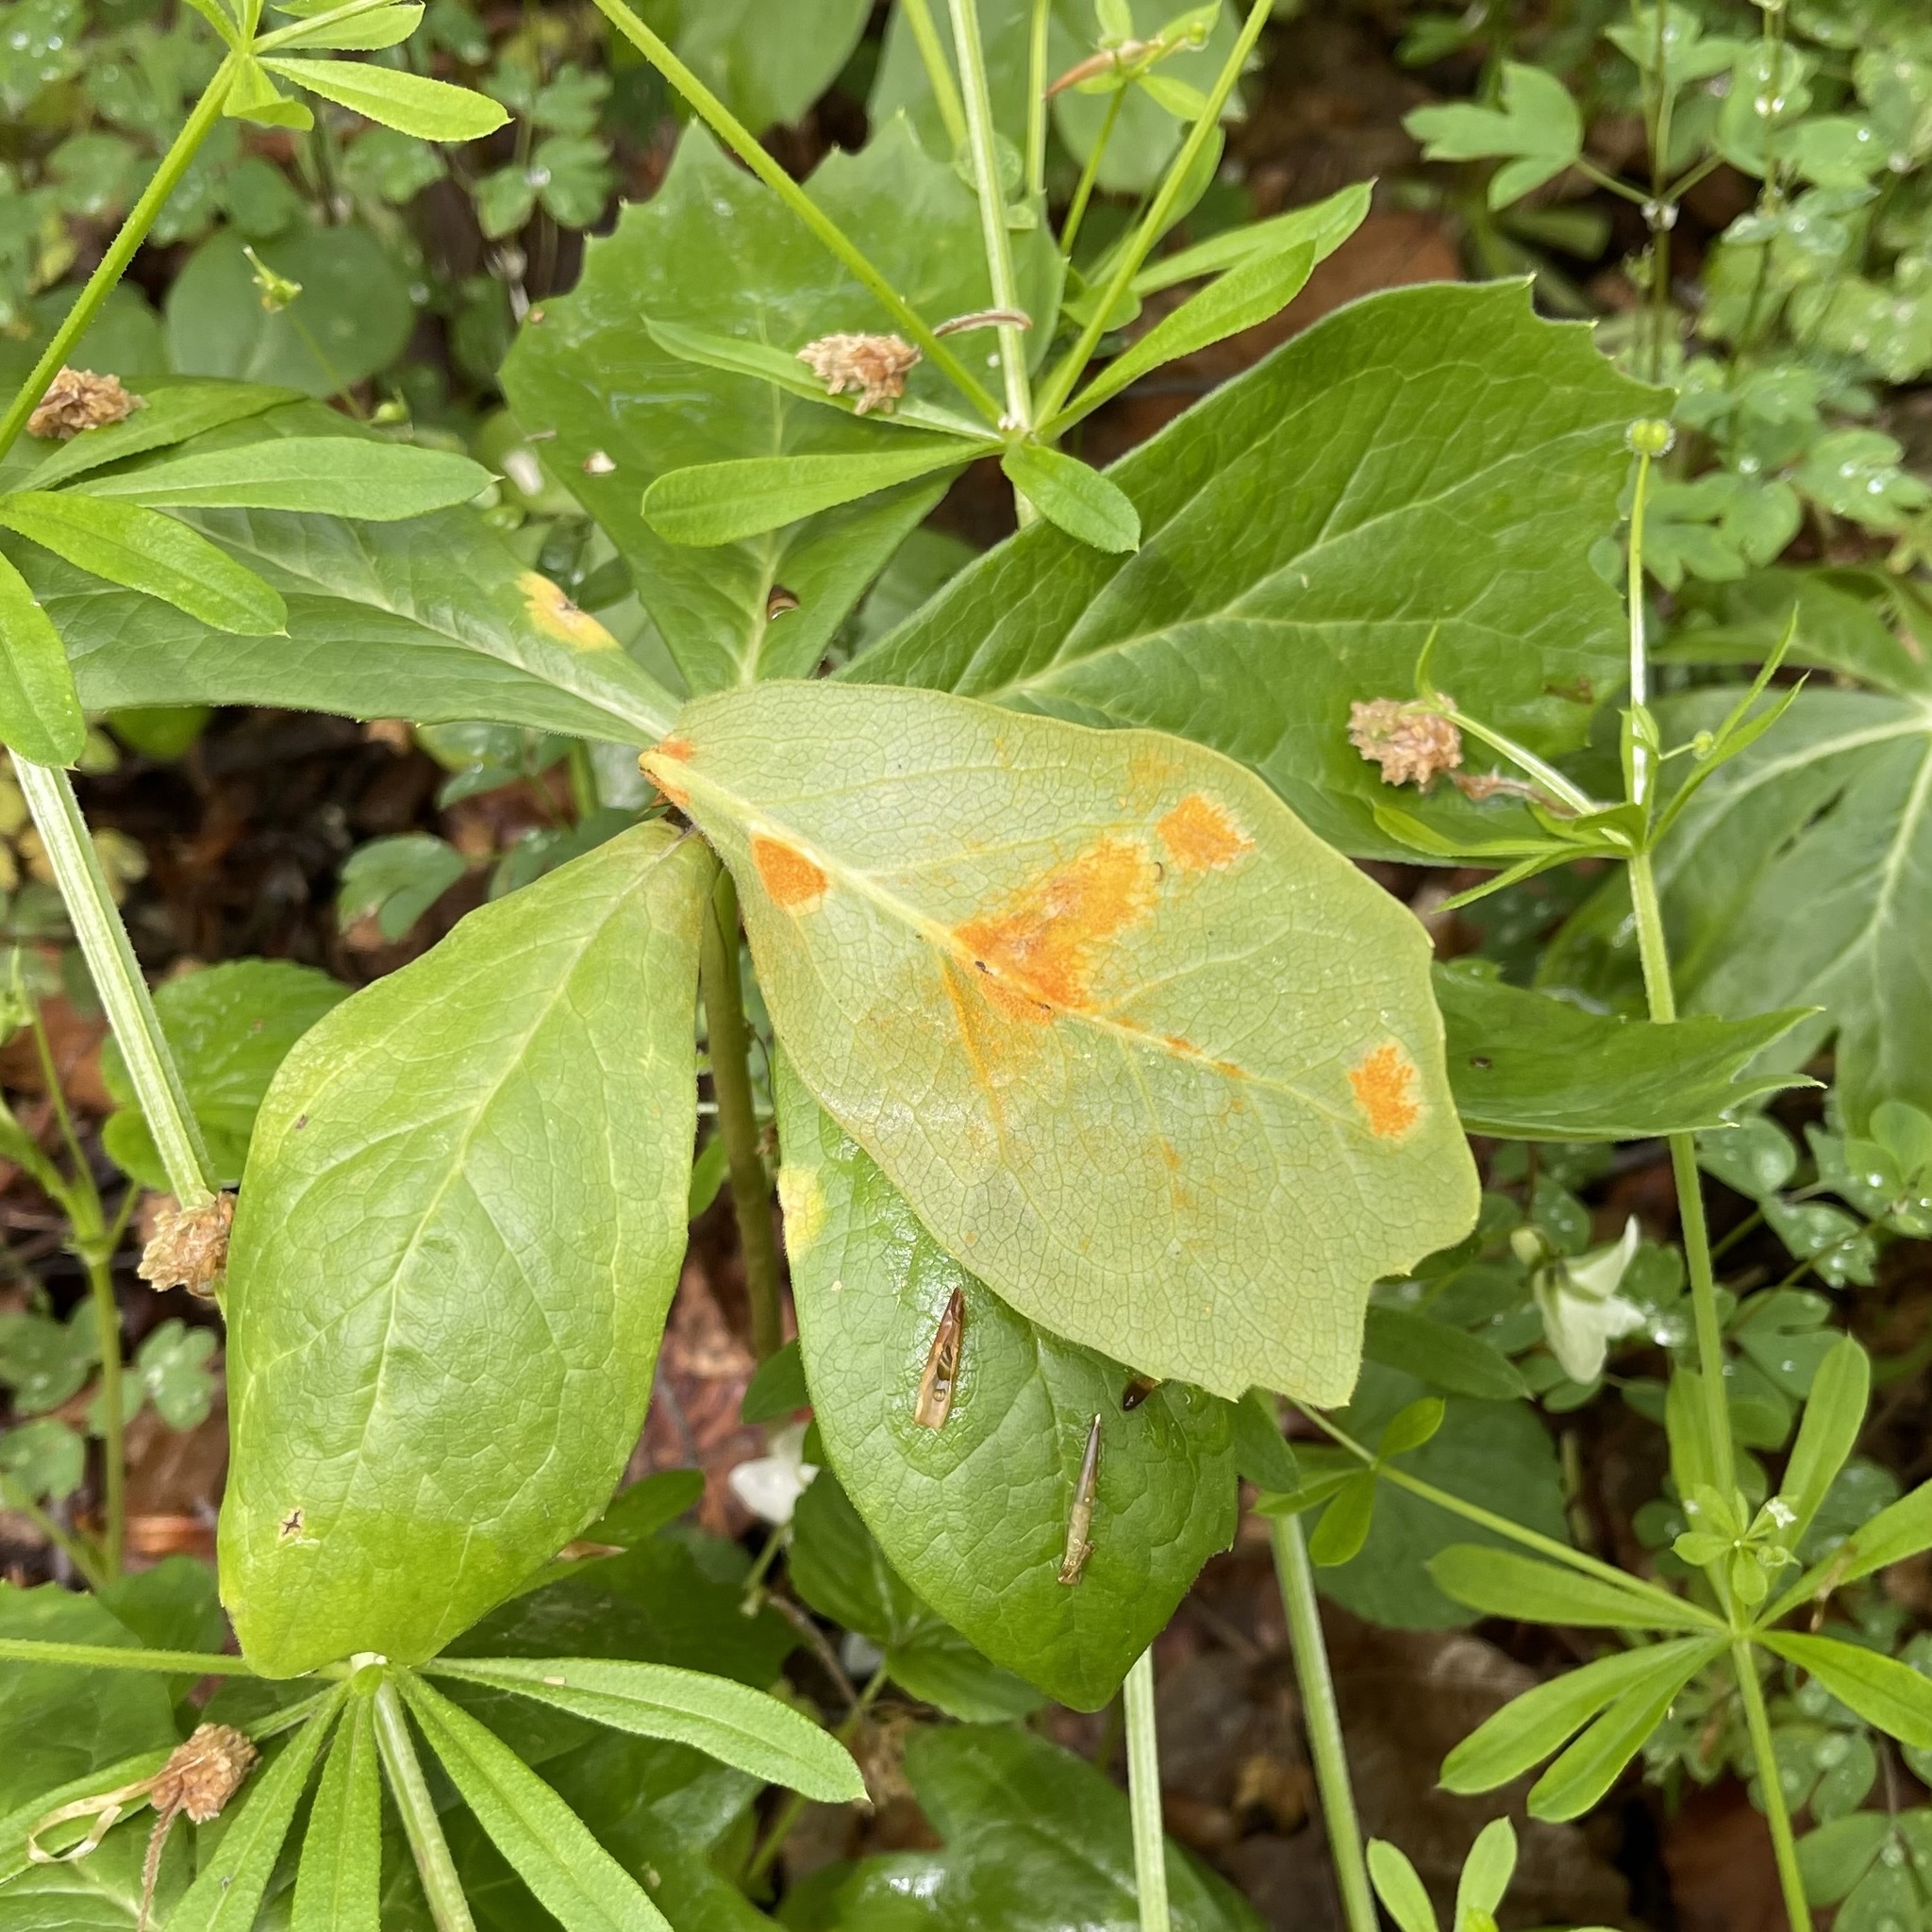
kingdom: Fungi
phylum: Basidiomycota
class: Pucciniomycetes
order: Pucciniales
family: Pucciniaceae
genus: Puccinia
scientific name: Puccinia podophylli
